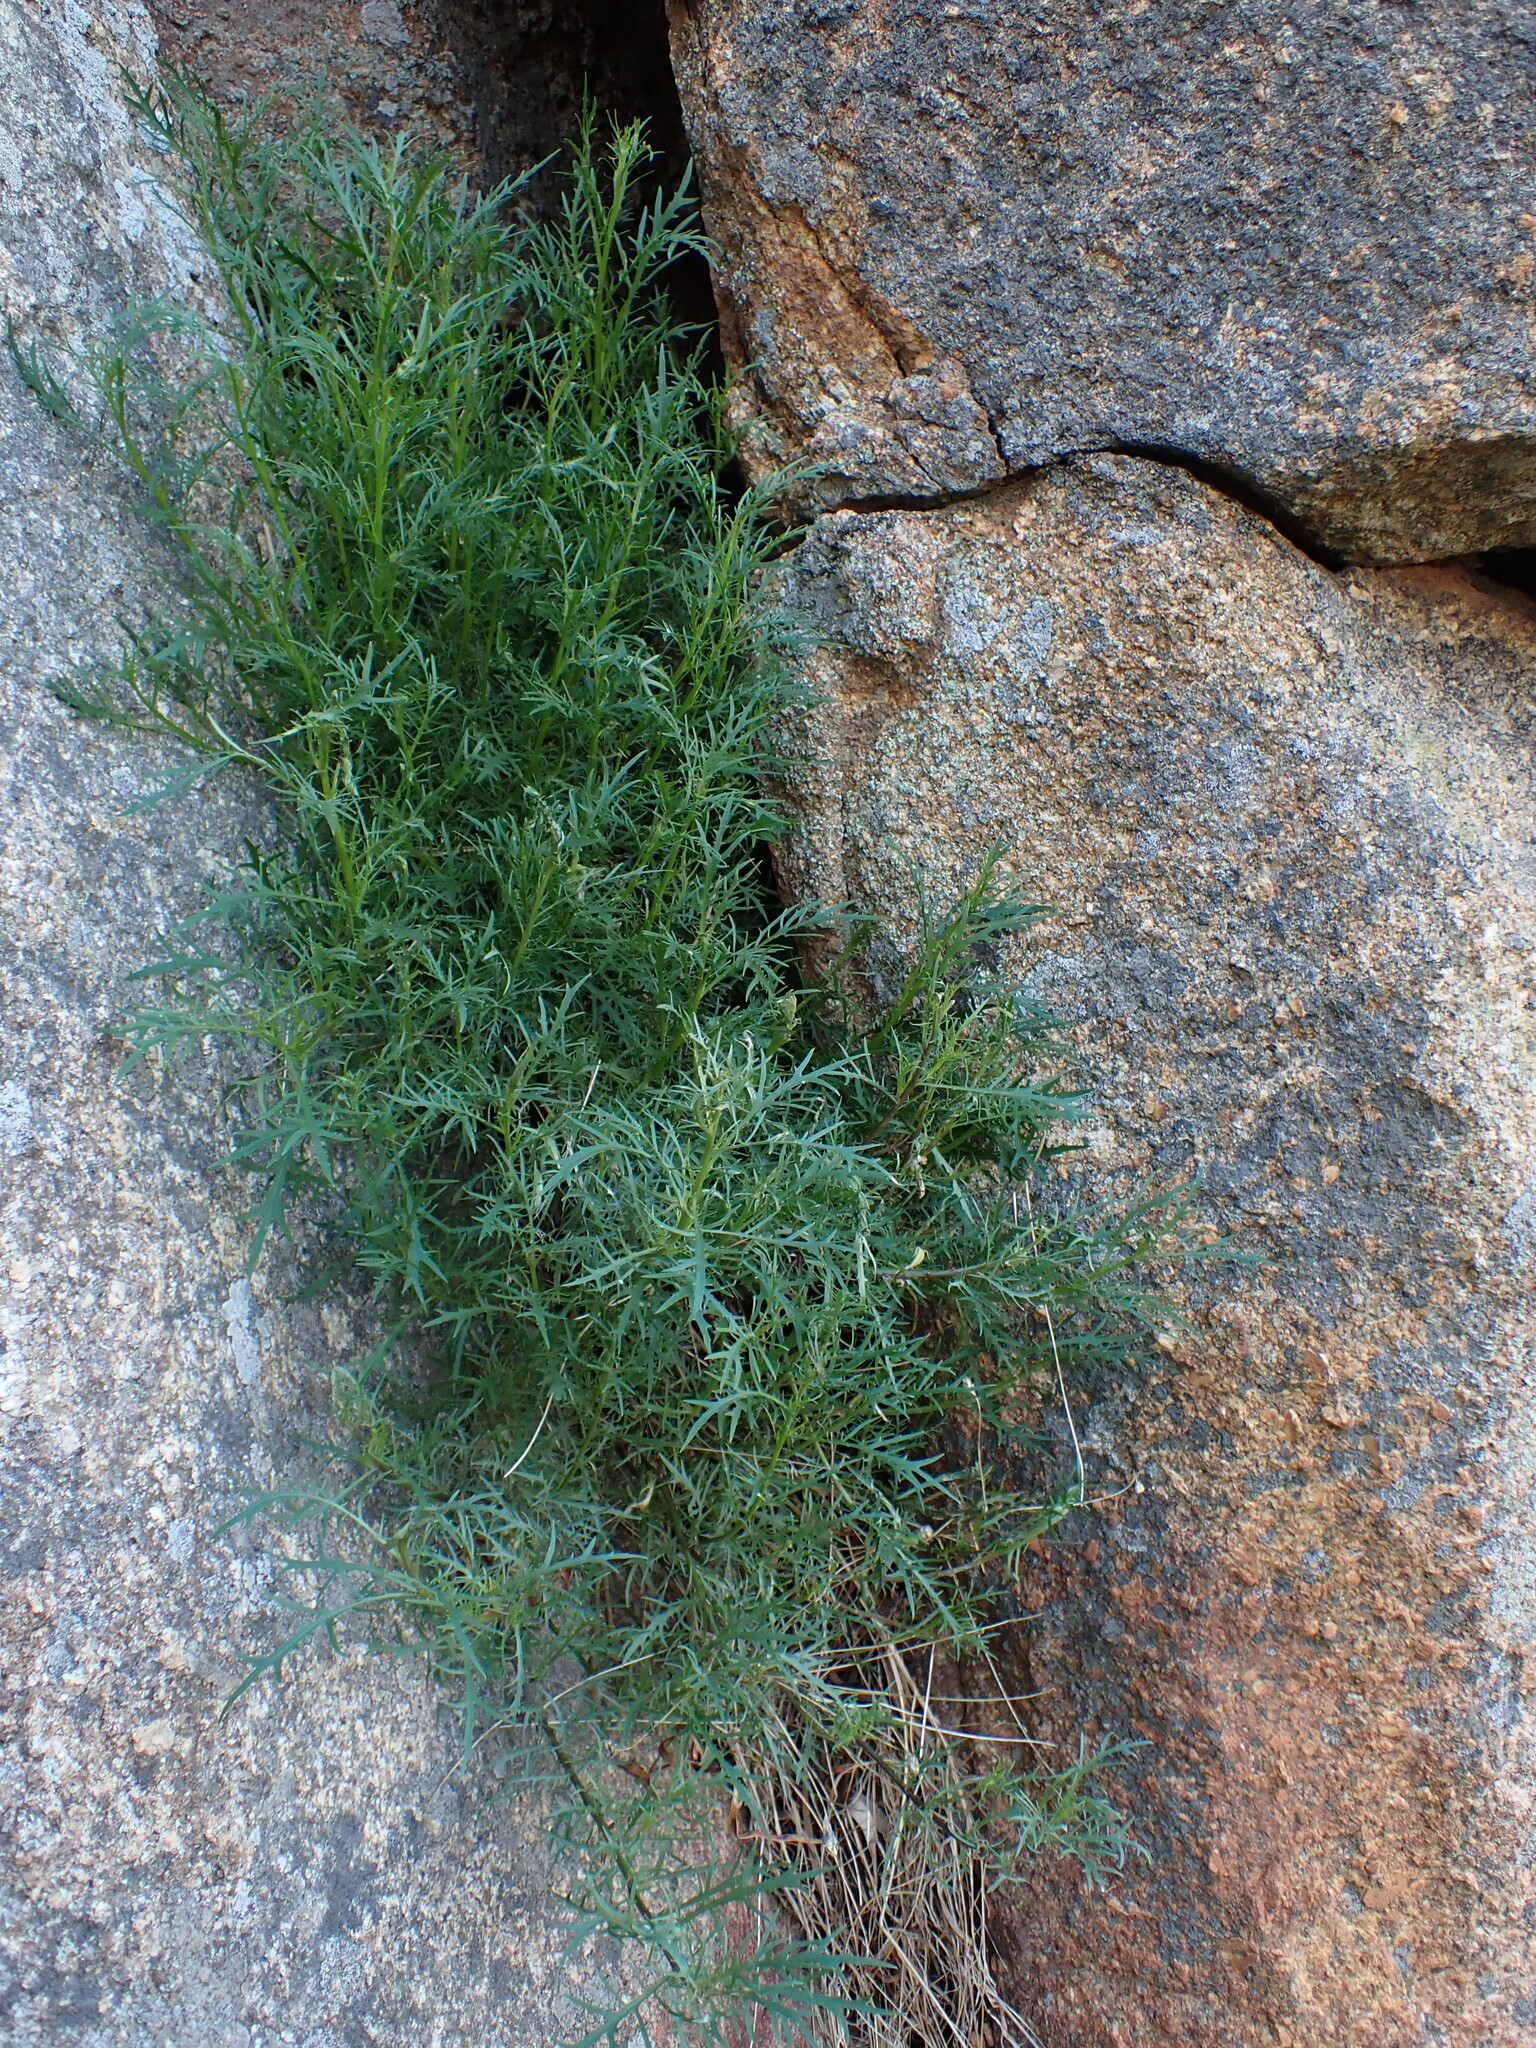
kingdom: Plantae
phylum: Tracheophyta
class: Magnoliopsida
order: Asterales
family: Campanulaceae
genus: Lithotoma
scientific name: Lithotoma axillaris
